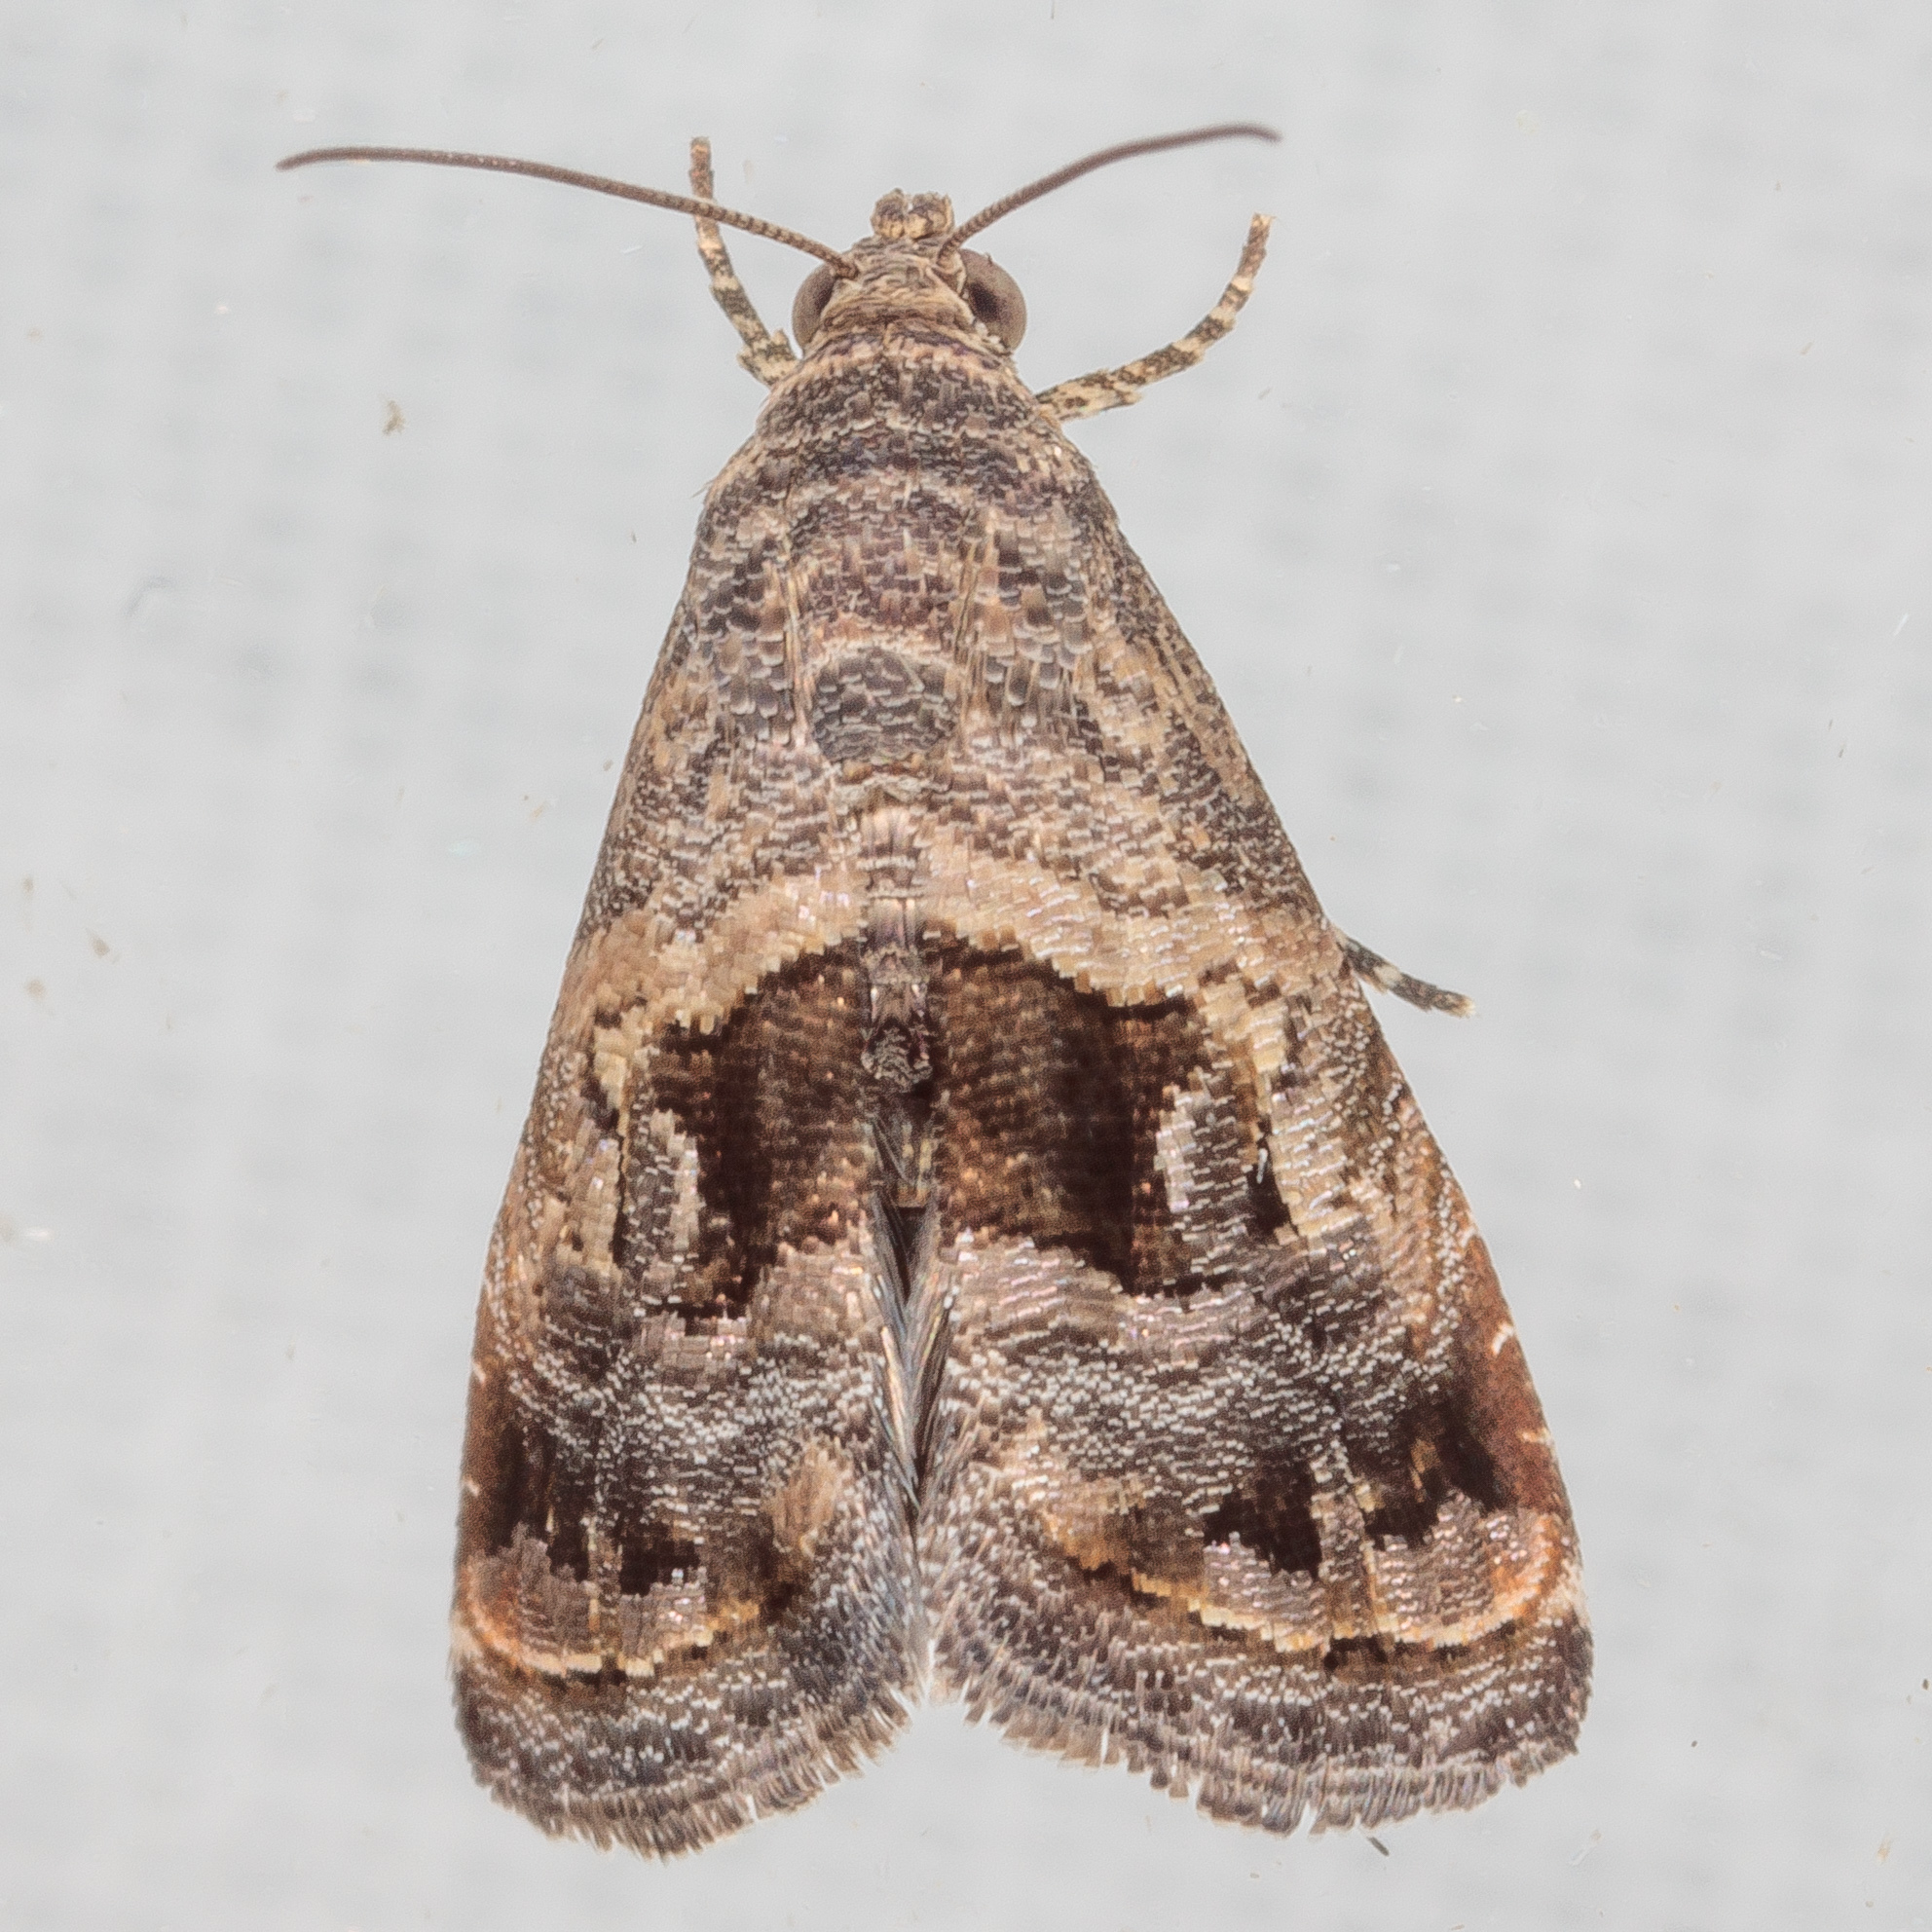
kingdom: Animalia
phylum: Arthropoda
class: Insecta
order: Lepidoptera
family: Noctuidae
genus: Tripudia
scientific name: Tripudia quadrifera
